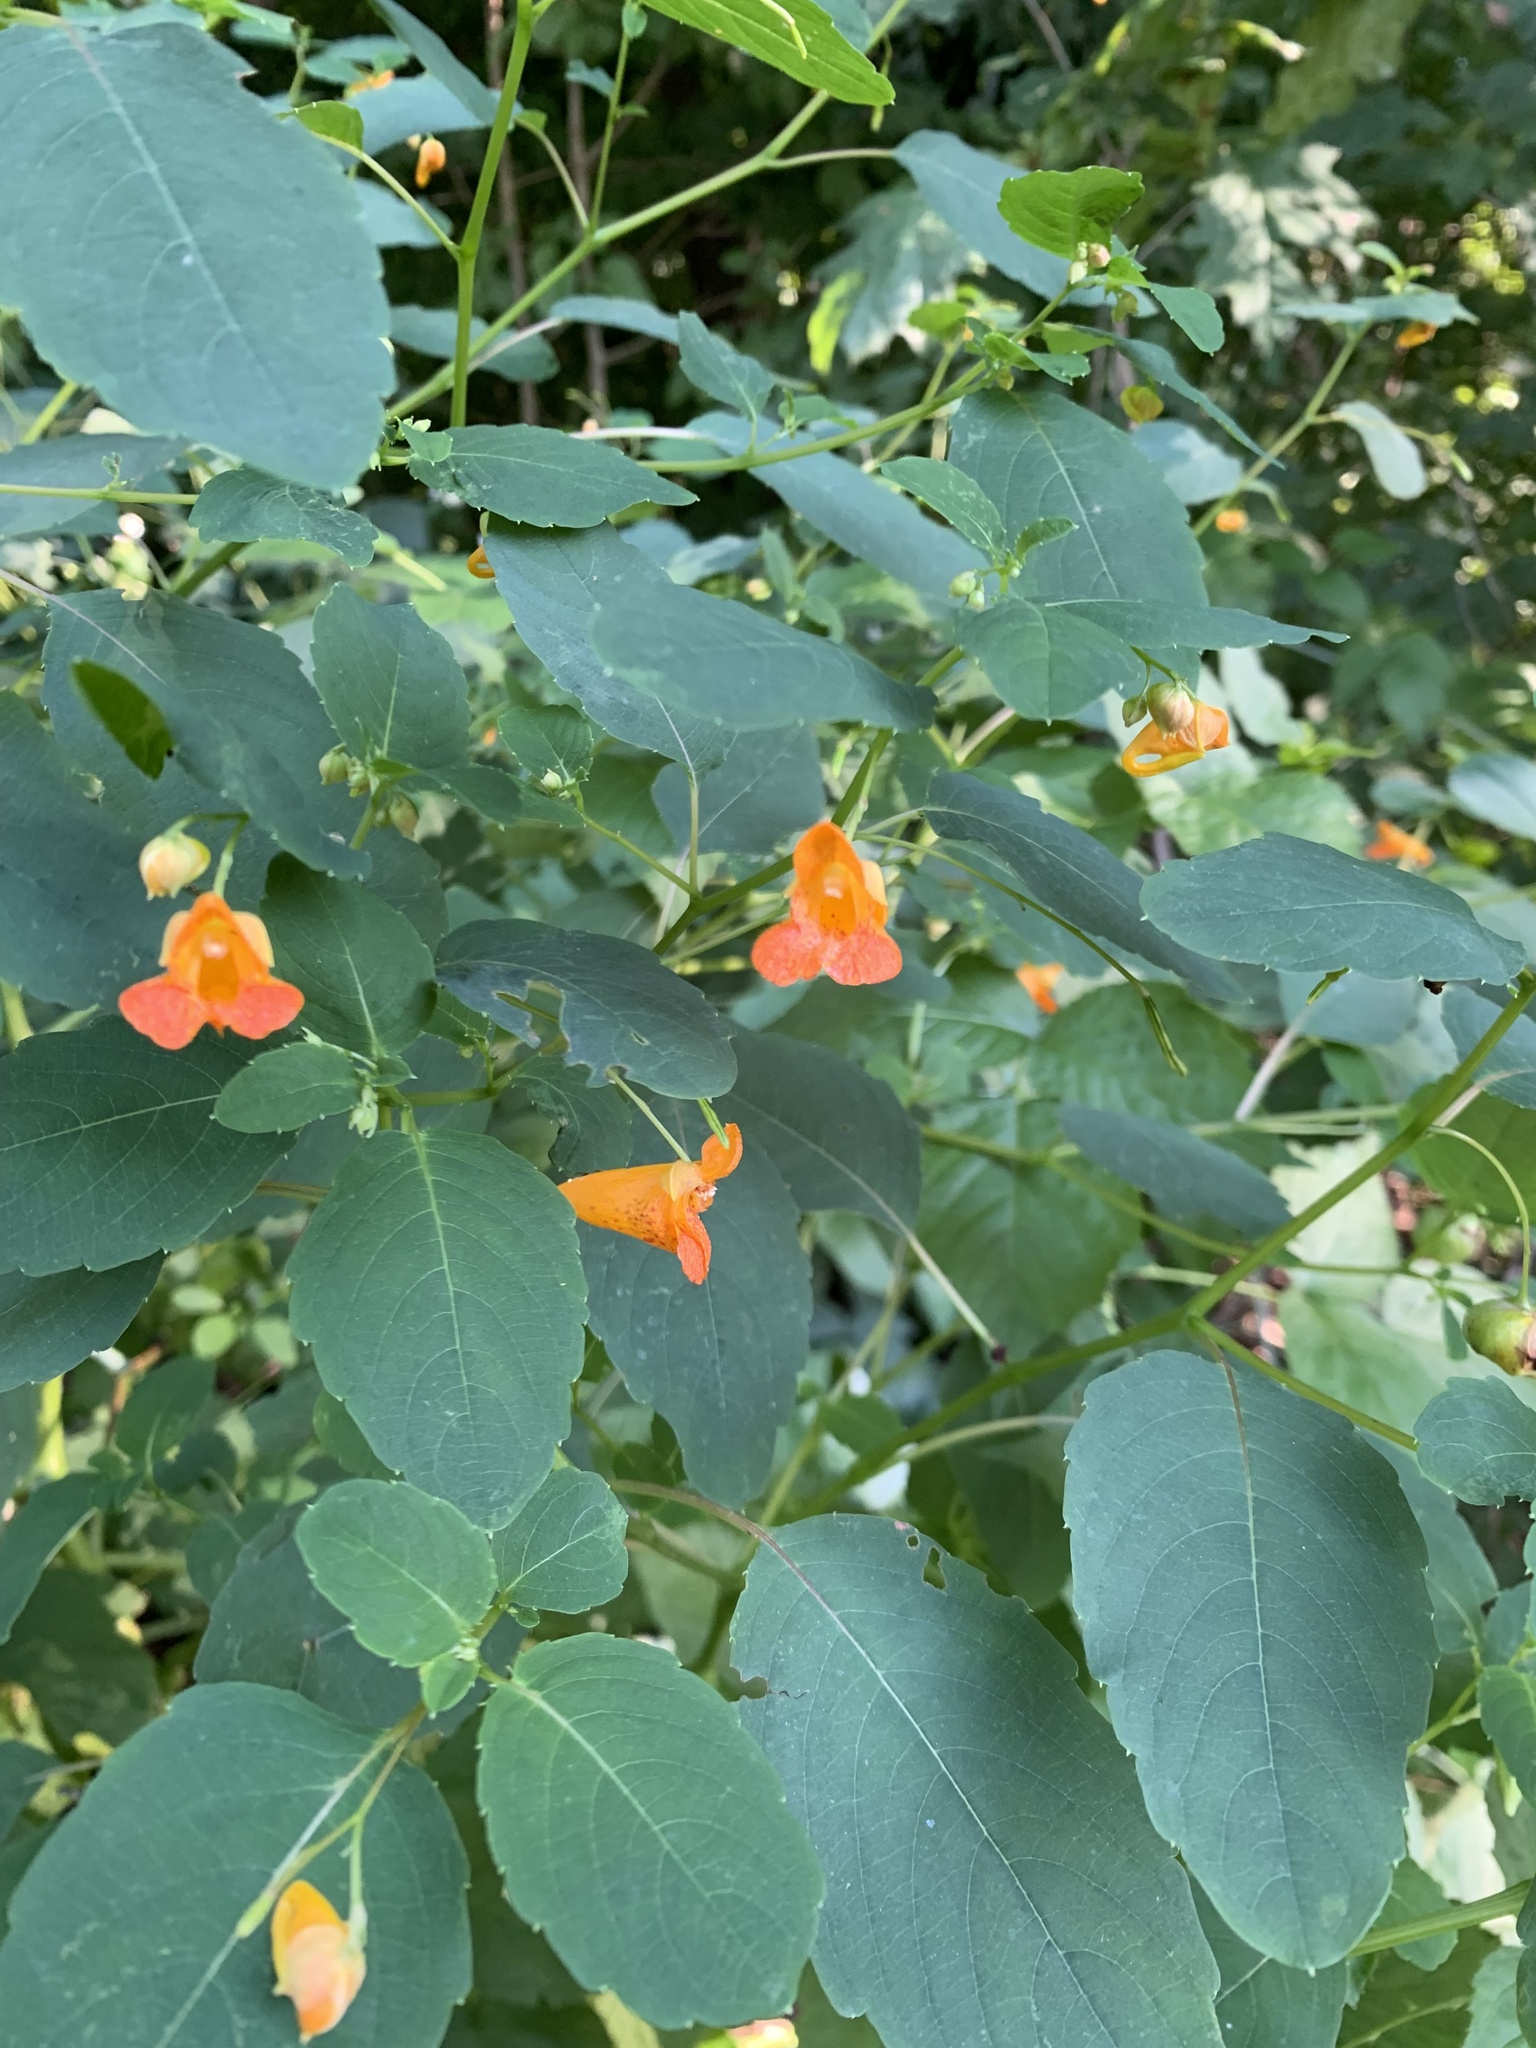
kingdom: Plantae
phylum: Tracheophyta
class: Magnoliopsida
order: Ericales
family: Balsaminaceae
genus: Impatiens
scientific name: Impatiens capensis
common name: Orange balsam
